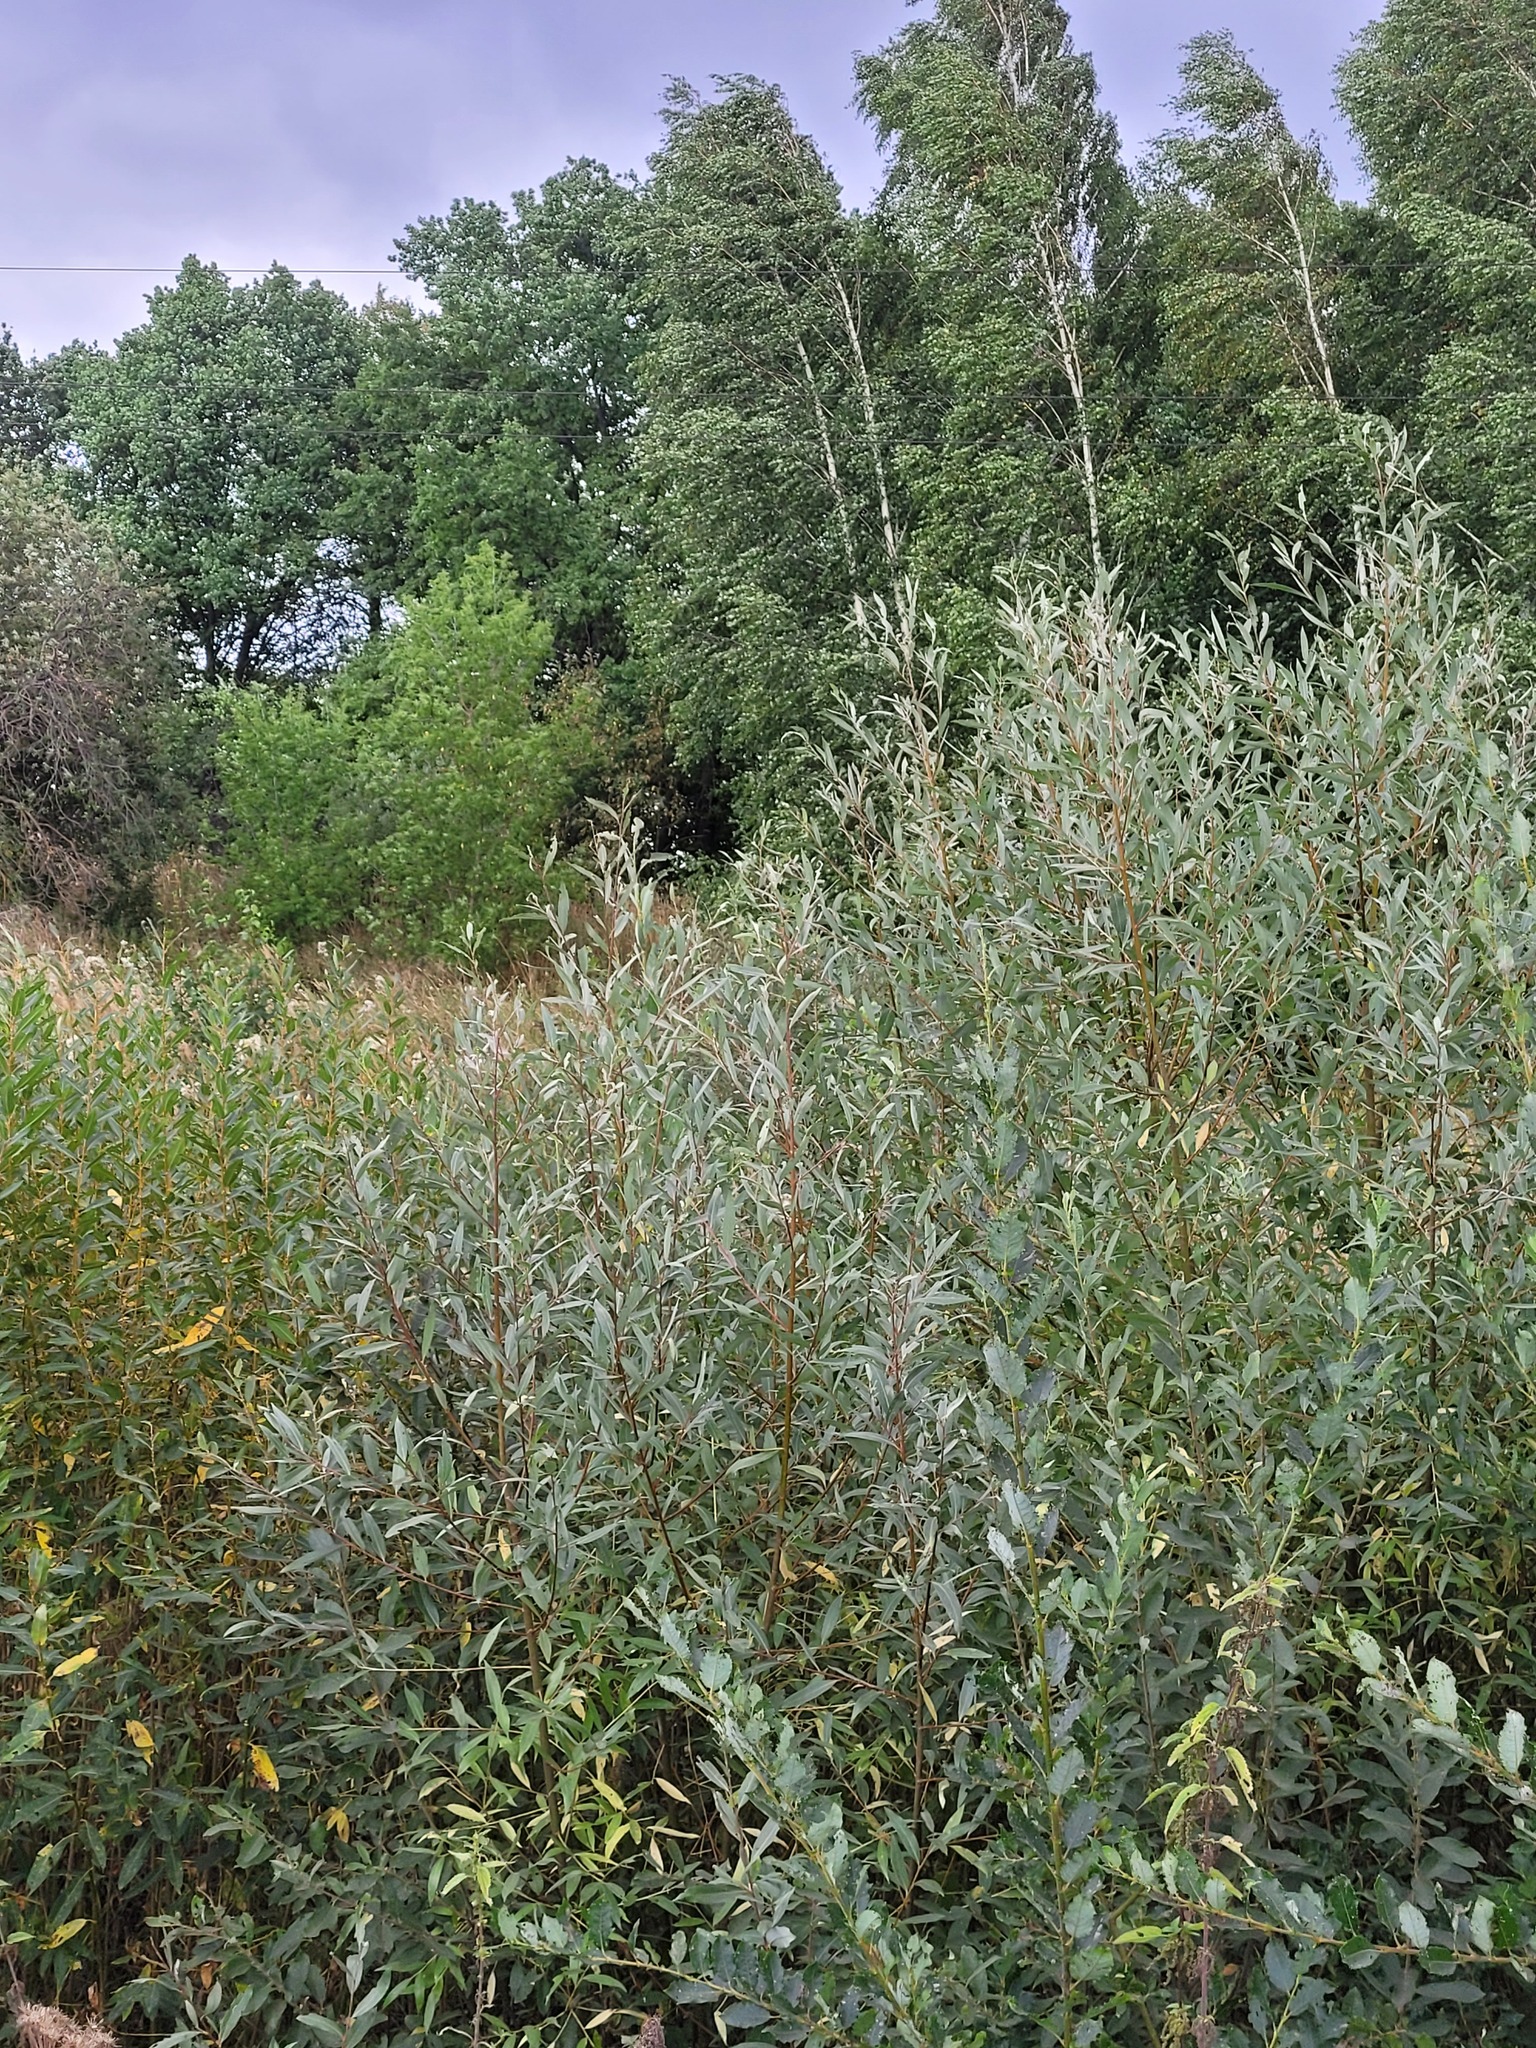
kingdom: Plantae
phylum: Tracheophyta
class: Magnoliopsida
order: Malpighiales
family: Salicaceae
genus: Salix
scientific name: Salix alba
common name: White willow
